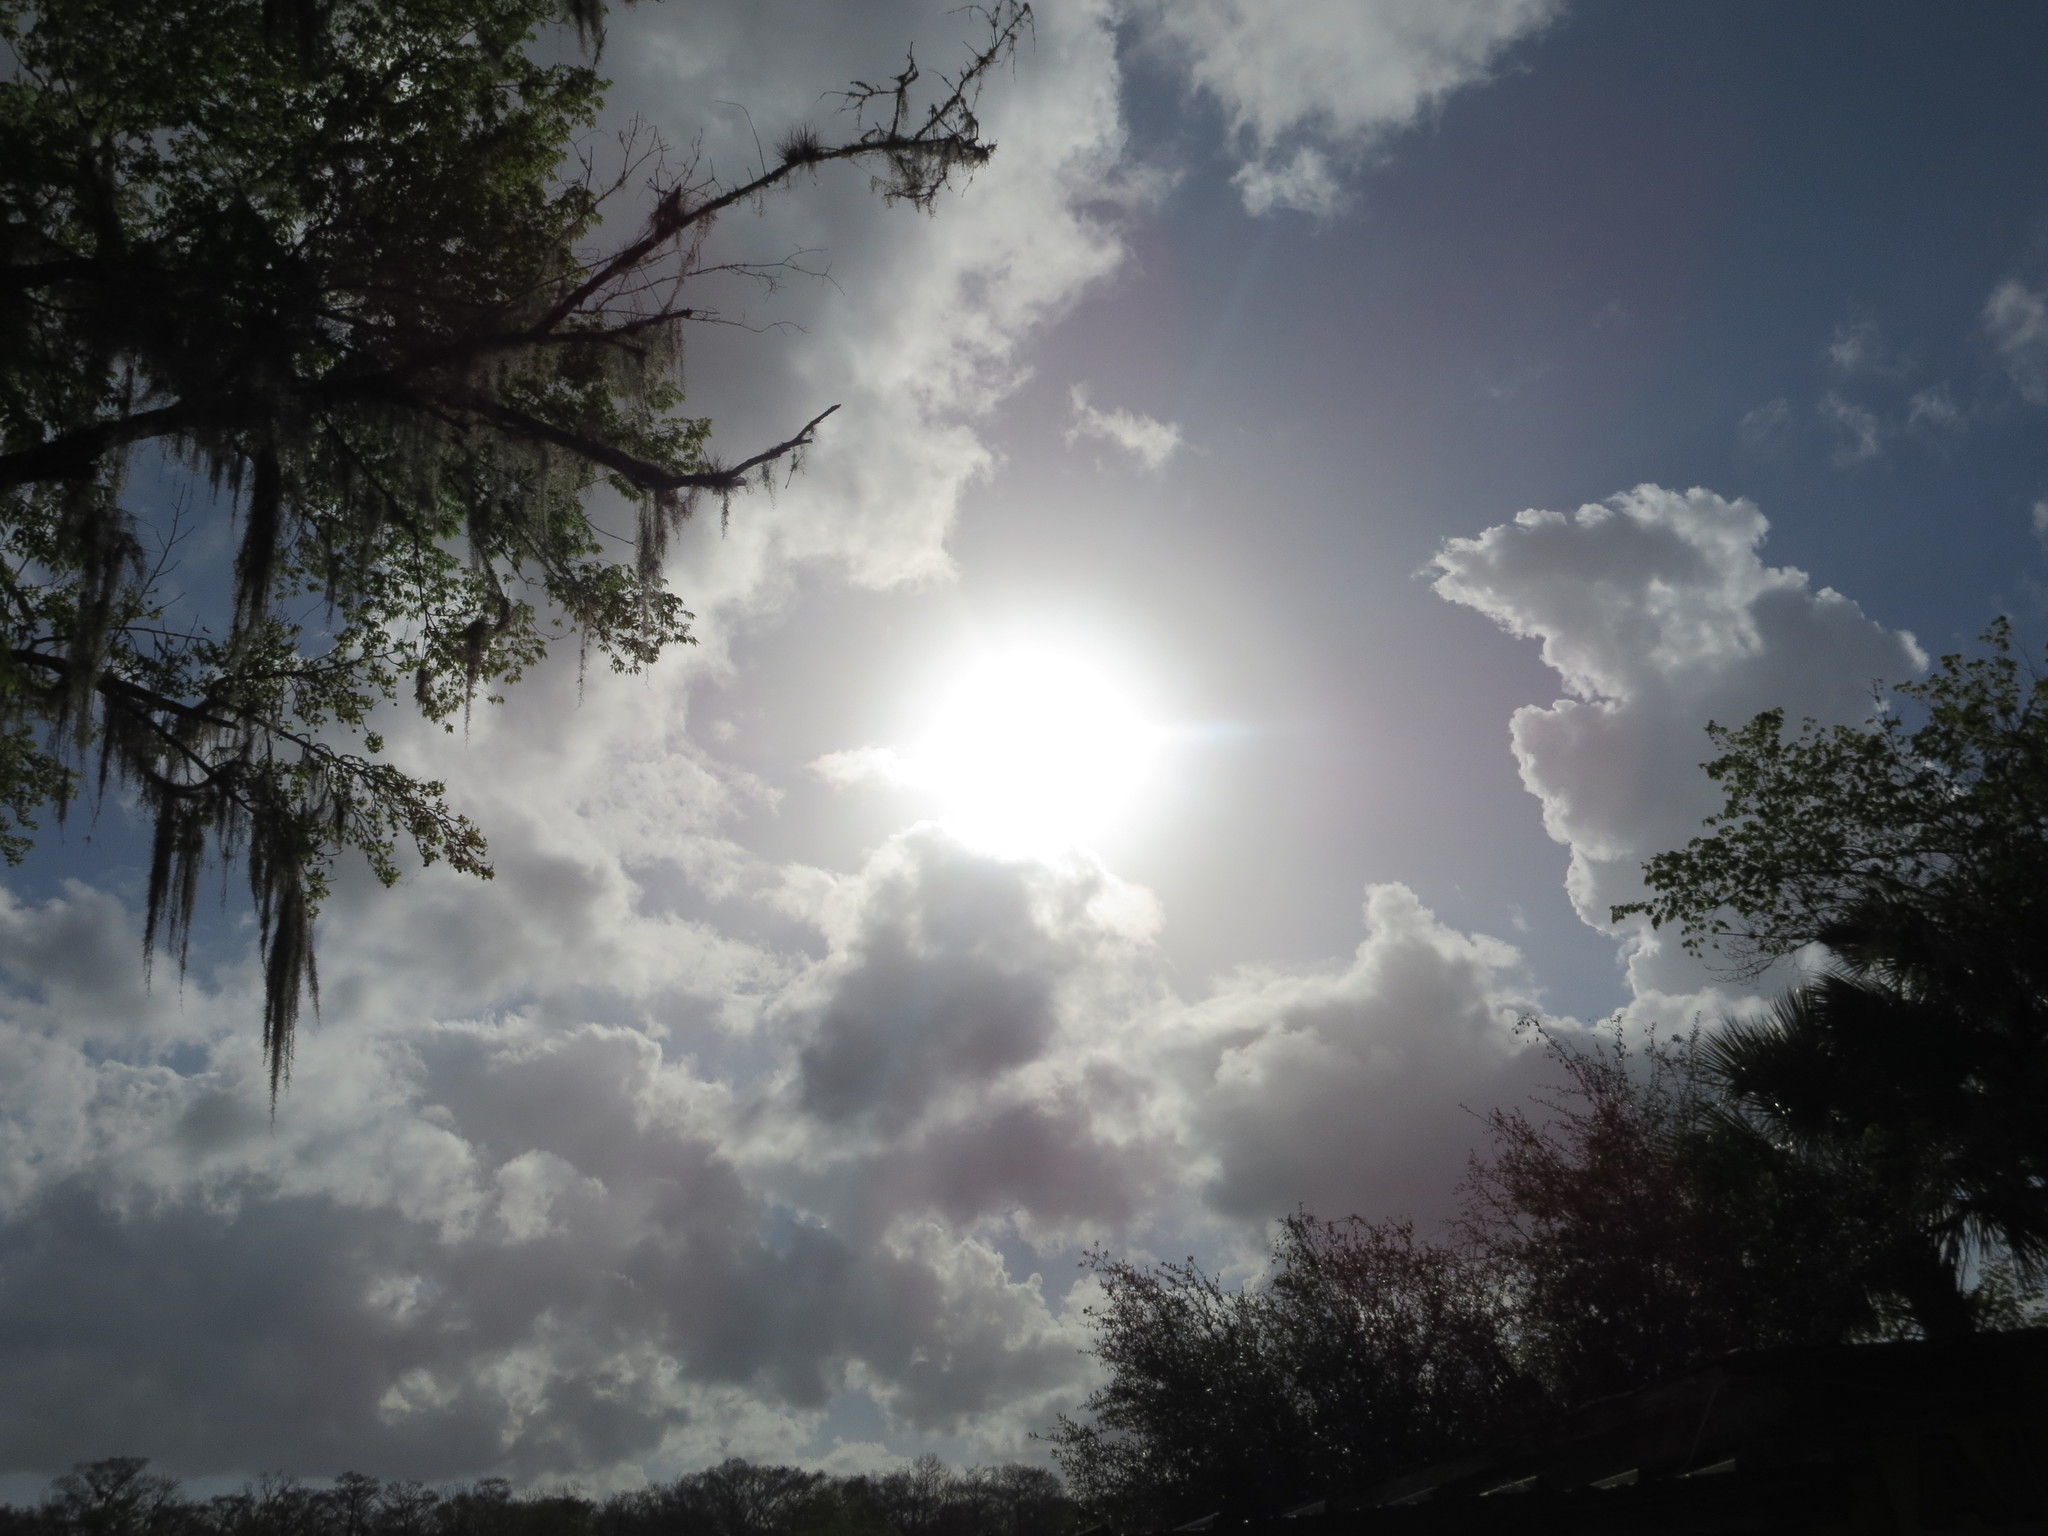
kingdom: Plantae
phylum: Tracheophyta
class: Liliopsida
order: Poales
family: Bromeliaceae
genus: Tillandsia
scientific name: Tillandsia usneoides
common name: Spanish moss
